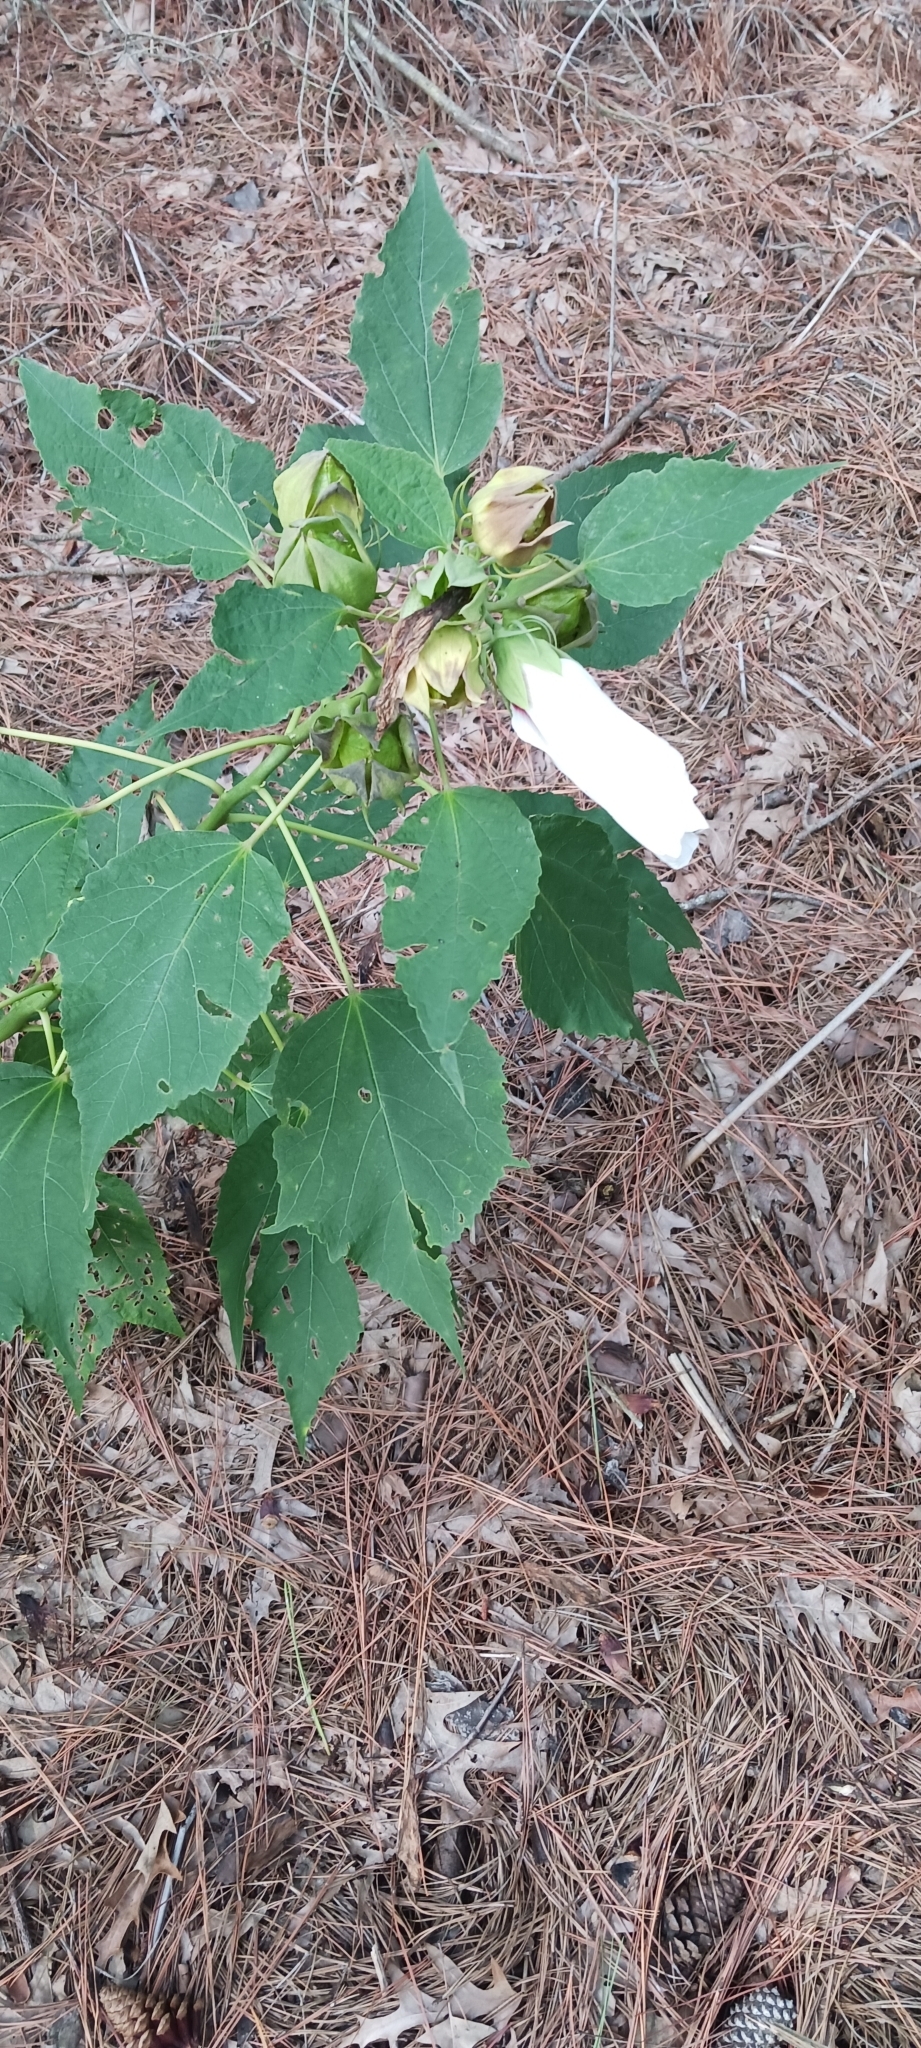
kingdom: Plantae
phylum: Tracheophyta
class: Magnoliopsida
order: Malvales
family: Malvaceae
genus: Hibiscus
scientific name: Hibiscus moscheutos
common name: Common rose-mallow
